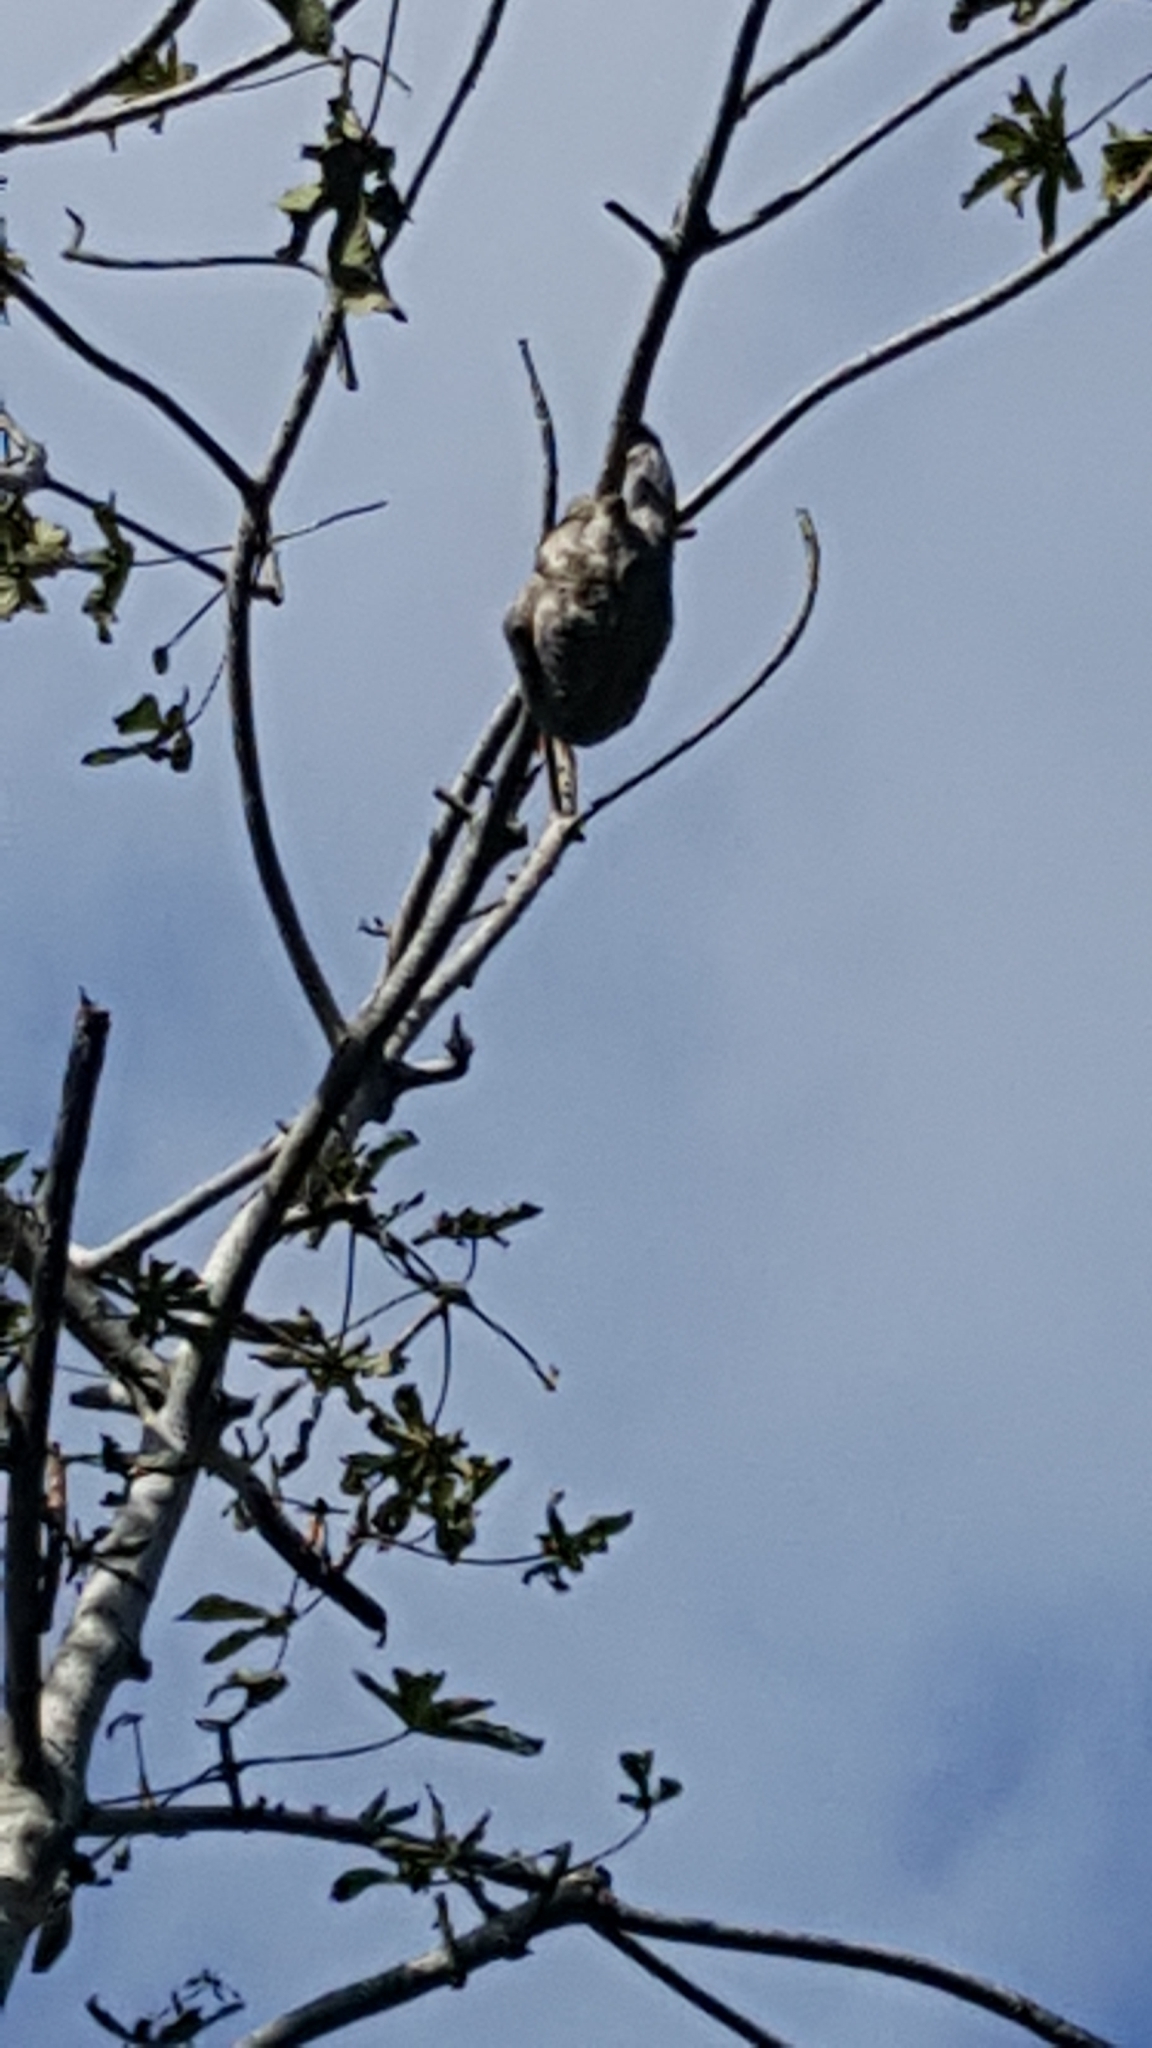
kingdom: Animalia
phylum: Chordata
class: Mammalia
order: Pilosa
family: Bradypodidae
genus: Bradypus
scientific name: Bradypus variegatus
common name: Brown-throated three-toed sloth
